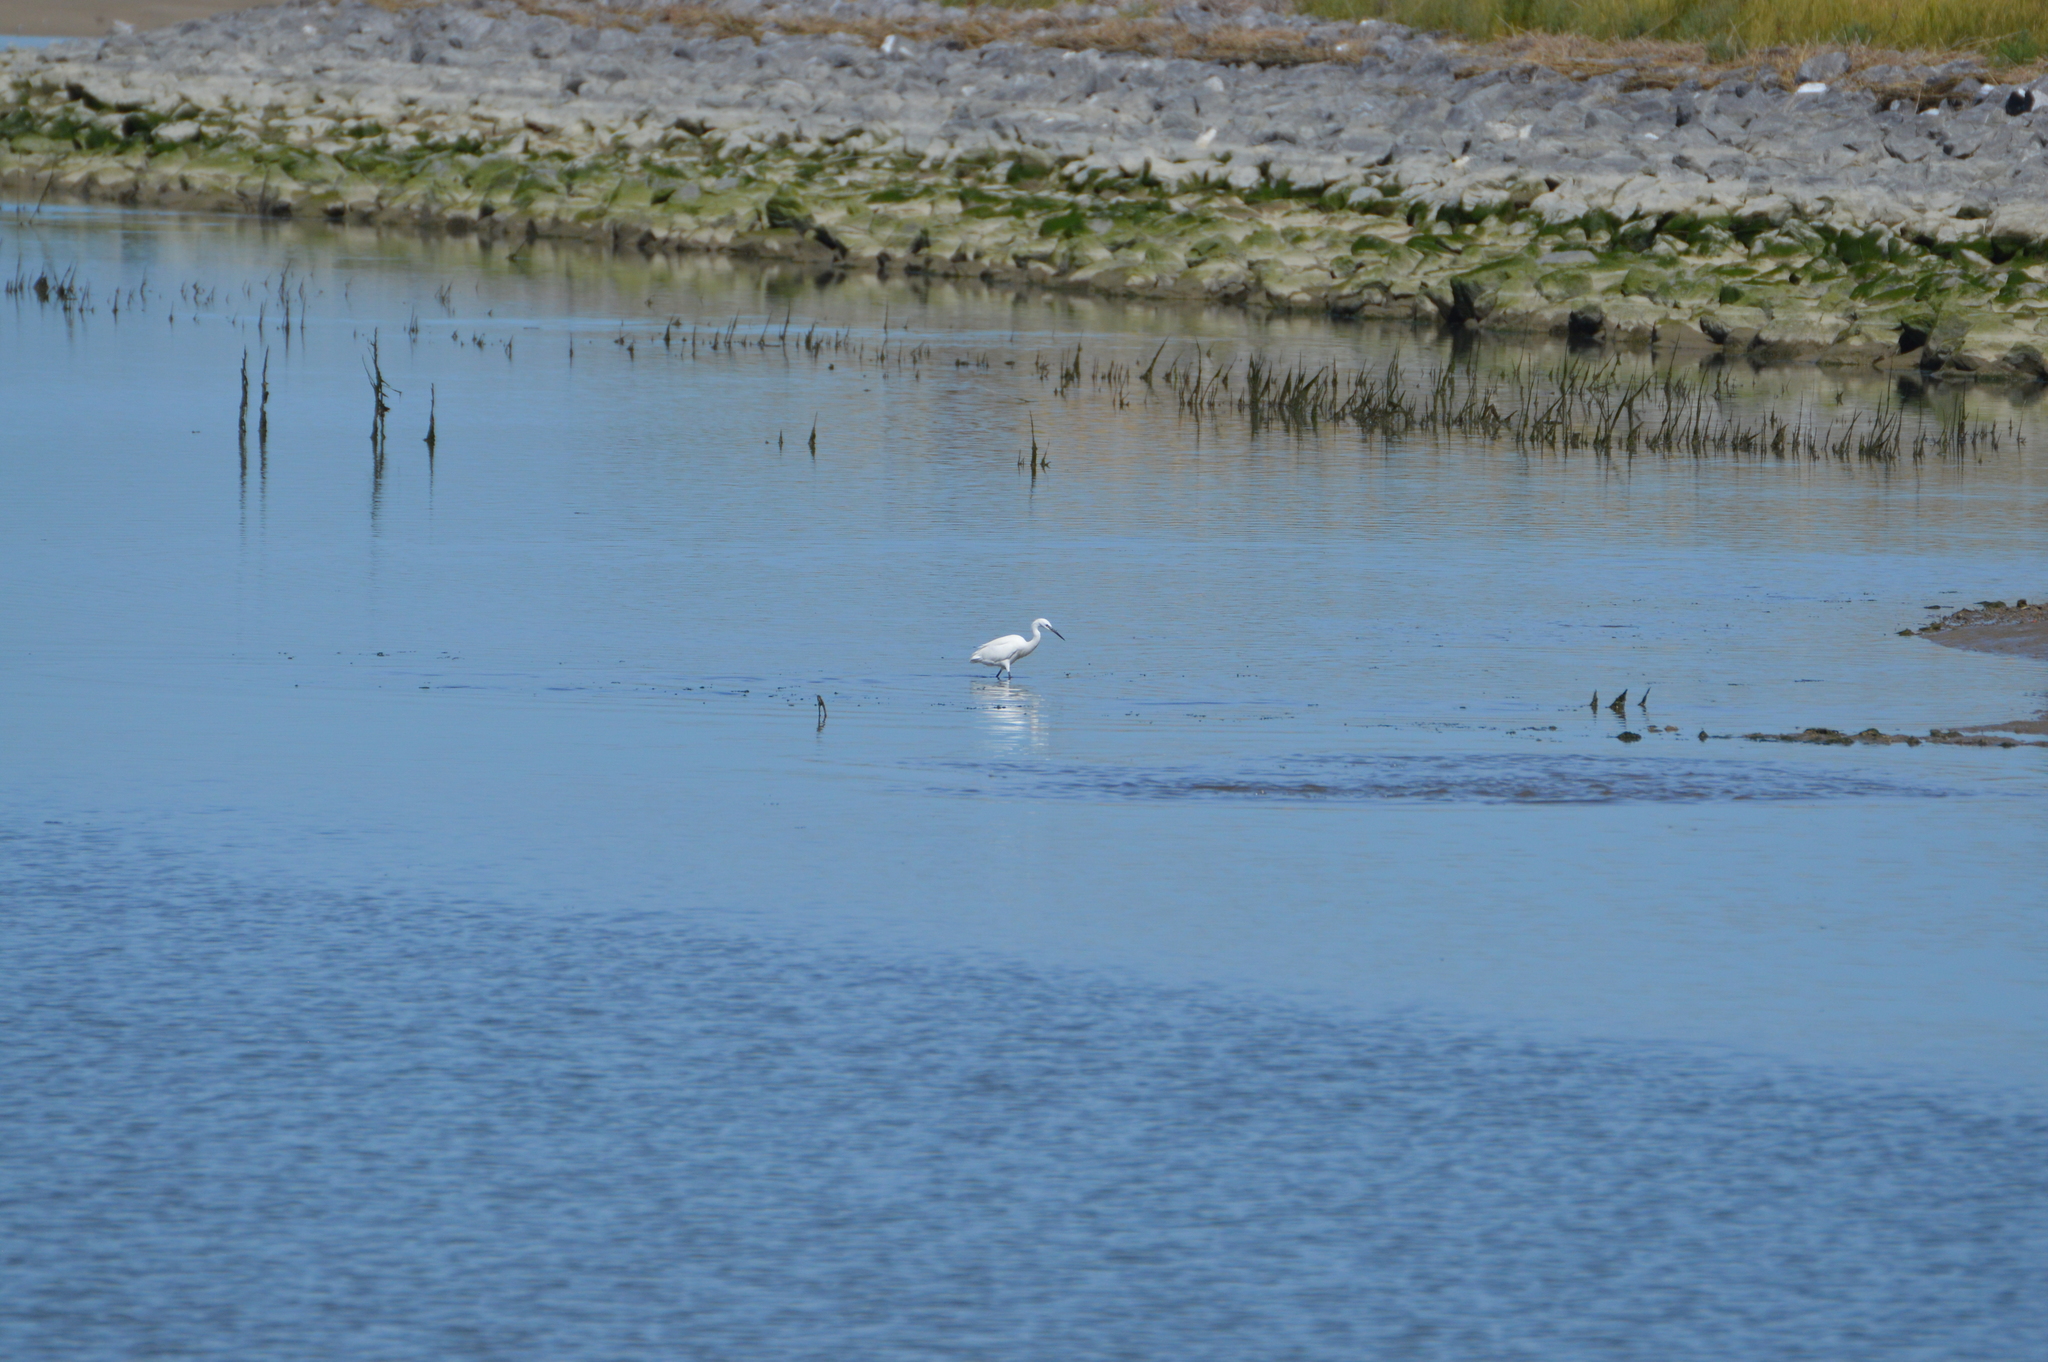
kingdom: Animalia
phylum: Chordata
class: Aves
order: Pelecaniformes
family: Ardeidae
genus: Egretta
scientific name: Egretta garzetta
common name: Little egret
